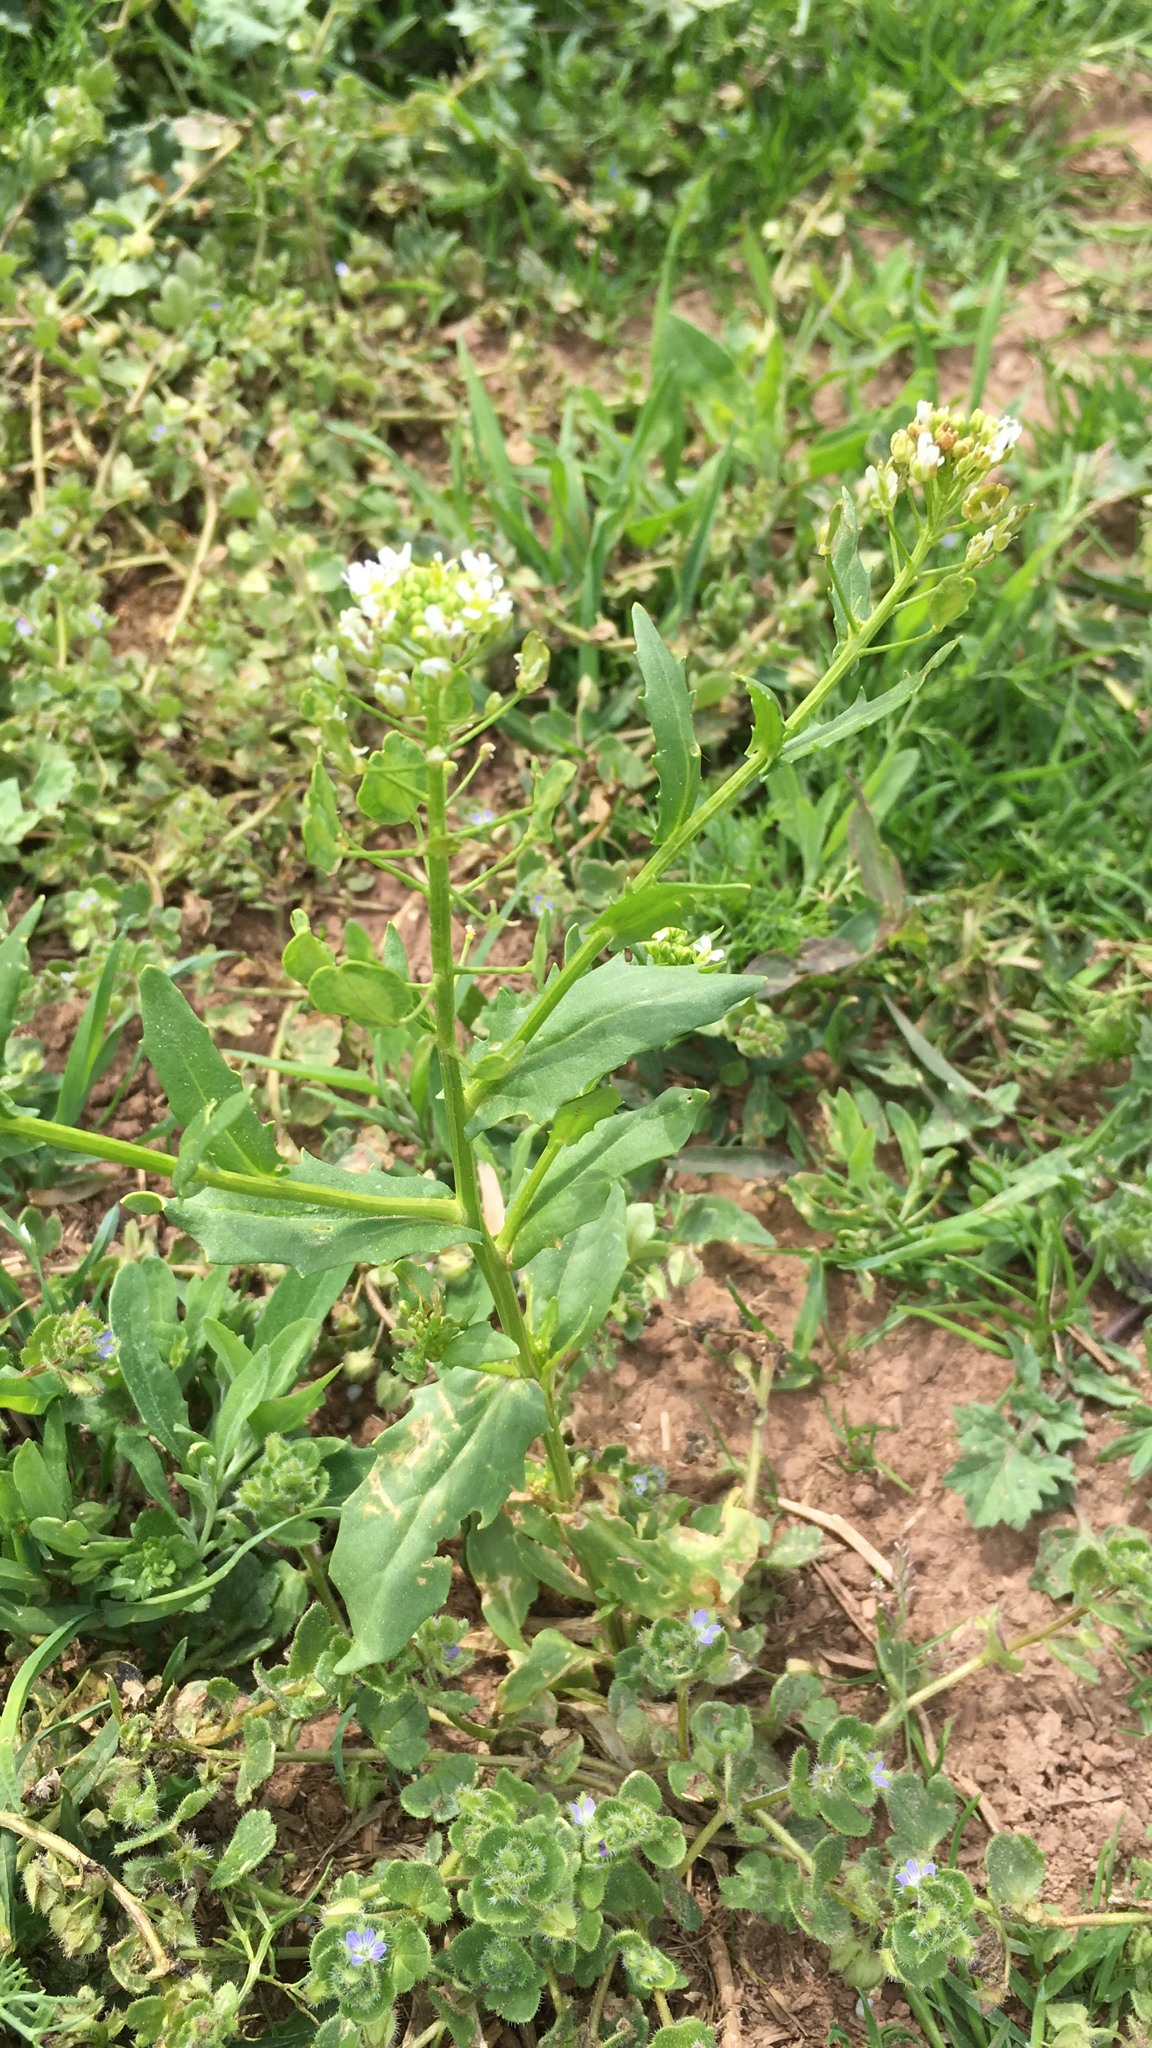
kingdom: Plantae
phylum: Tracheophyta
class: Magnoliopsida
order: Brassicales
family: Brassicaceae
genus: Thlaspi
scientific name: Thlaspi arvense
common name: Field pennycress
